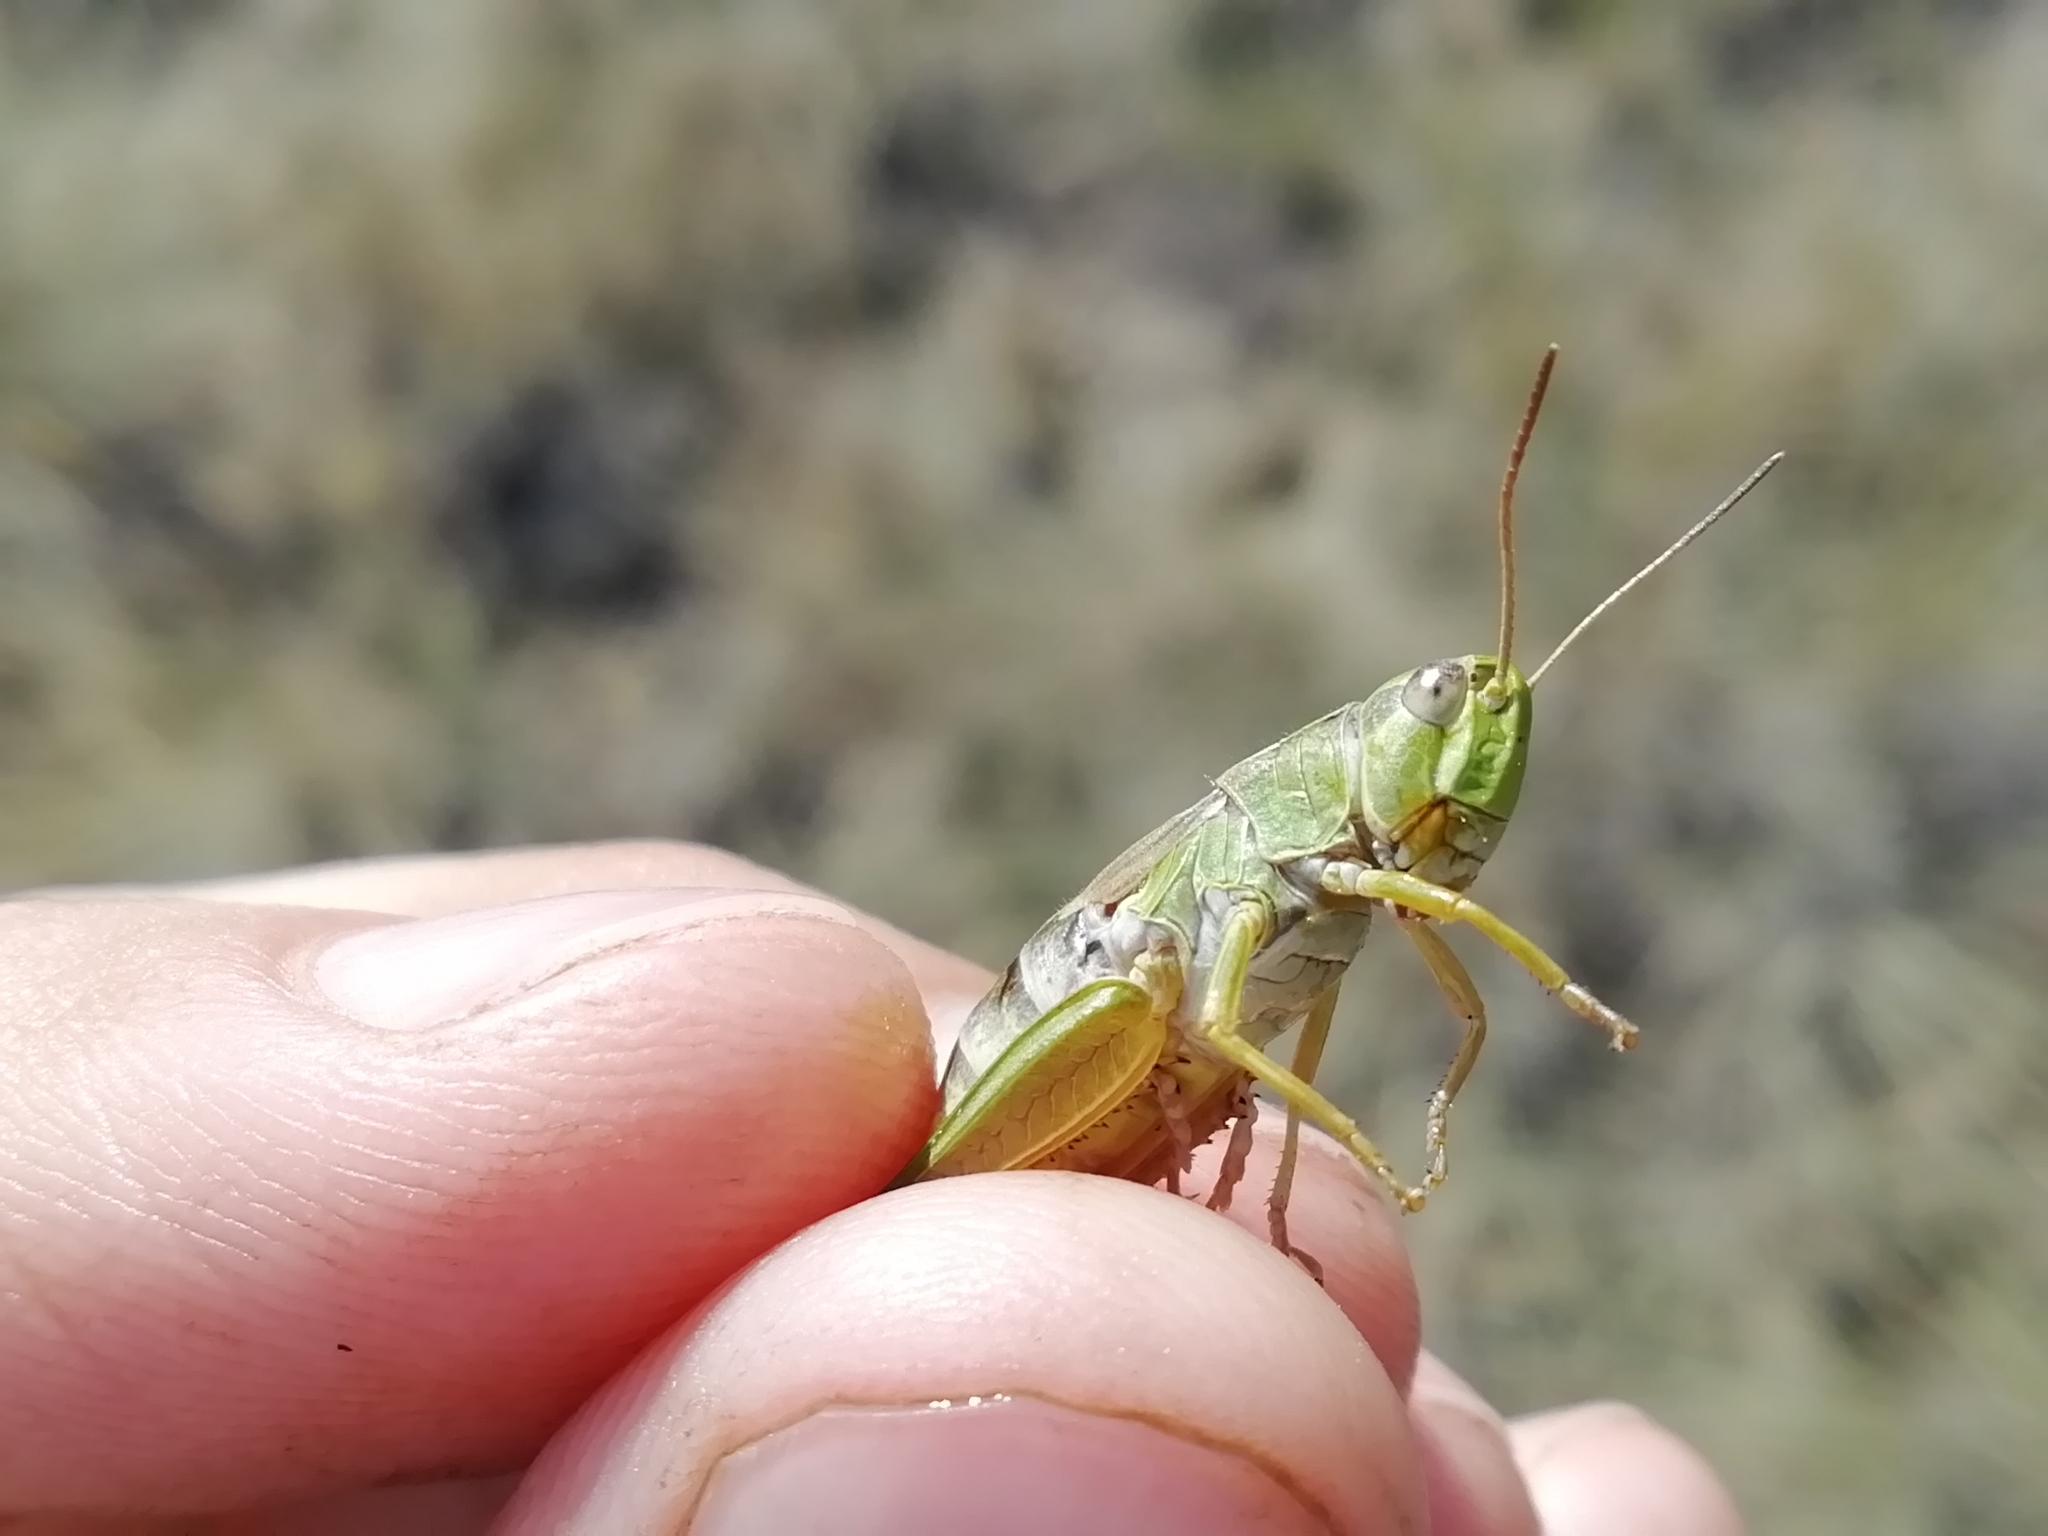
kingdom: Animalia
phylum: Arthropoda
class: Insecta
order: Orthoptera
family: Acrididae
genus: Chorthippus
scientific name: Chorthippus fallax
